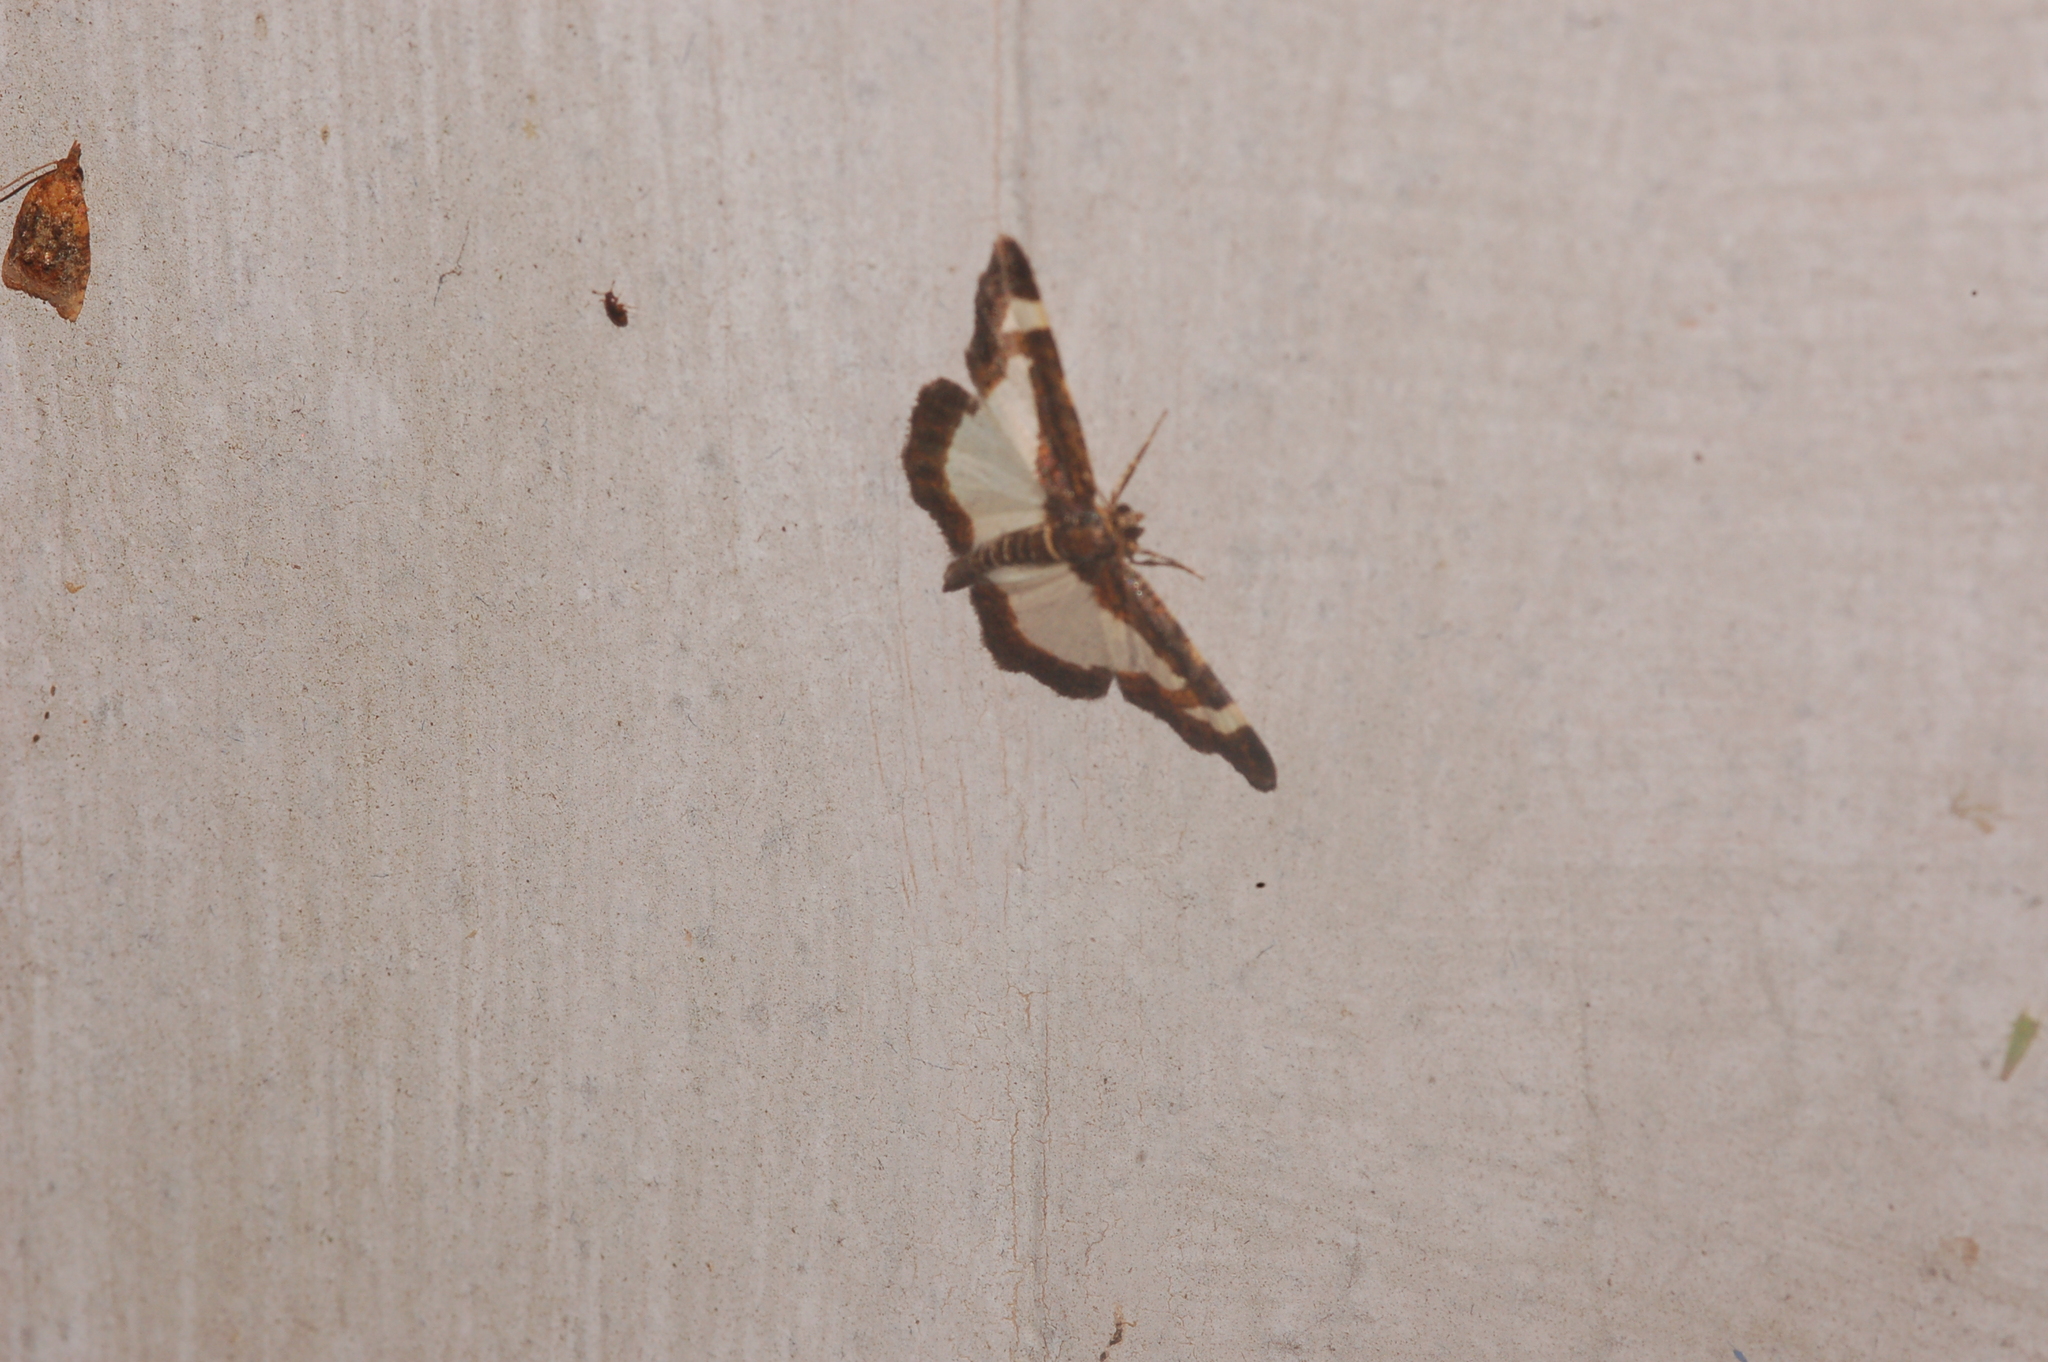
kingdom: Animalia
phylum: Arthropoda
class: Insecta
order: Lepidoptera
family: Geometridae
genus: Heliomata
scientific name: Heliomata cycladata
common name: Common spring moth
